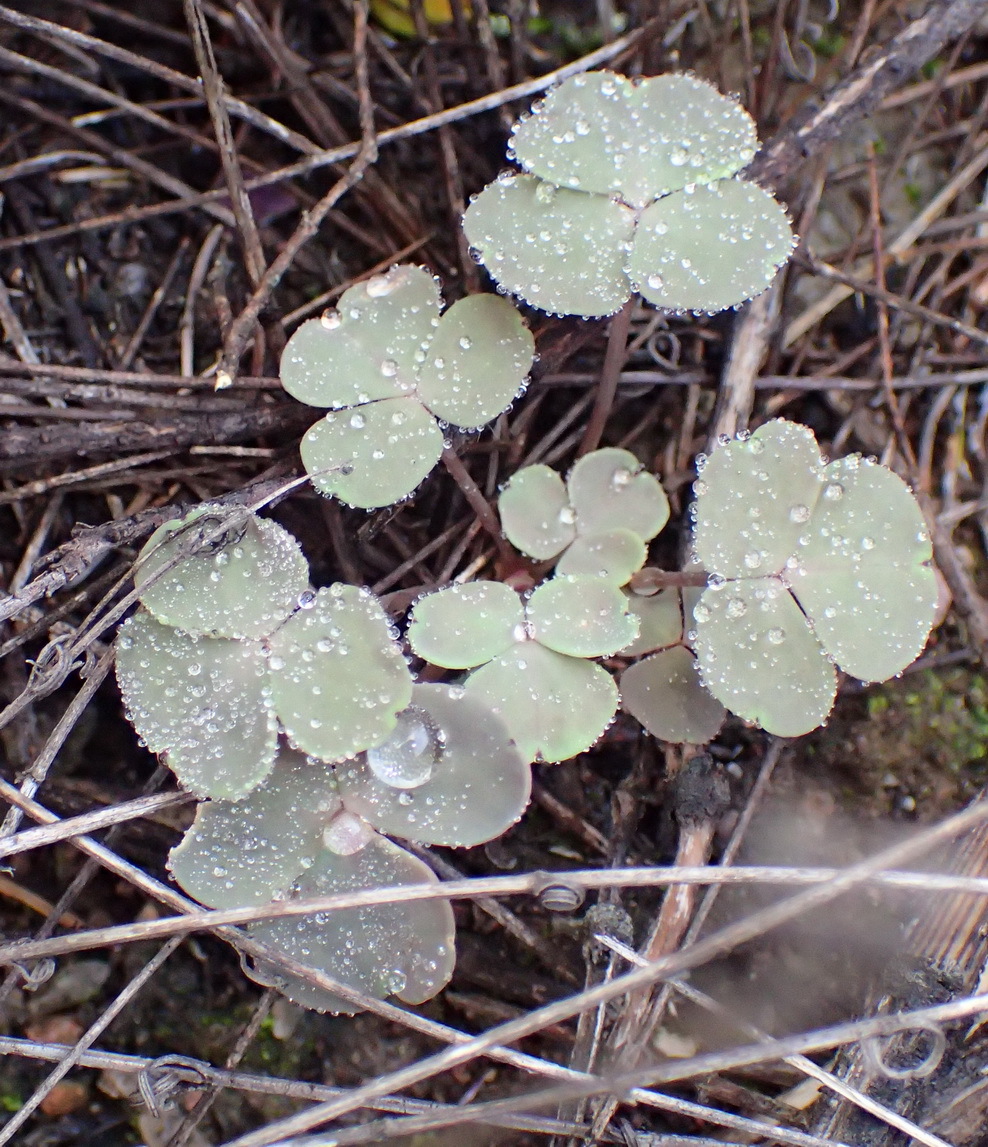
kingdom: Plantae
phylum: Tracheophyta
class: Magnoliopsida
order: Oxalidales
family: Oxalidaceae
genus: Oxalis
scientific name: Oxalis pocockiae
